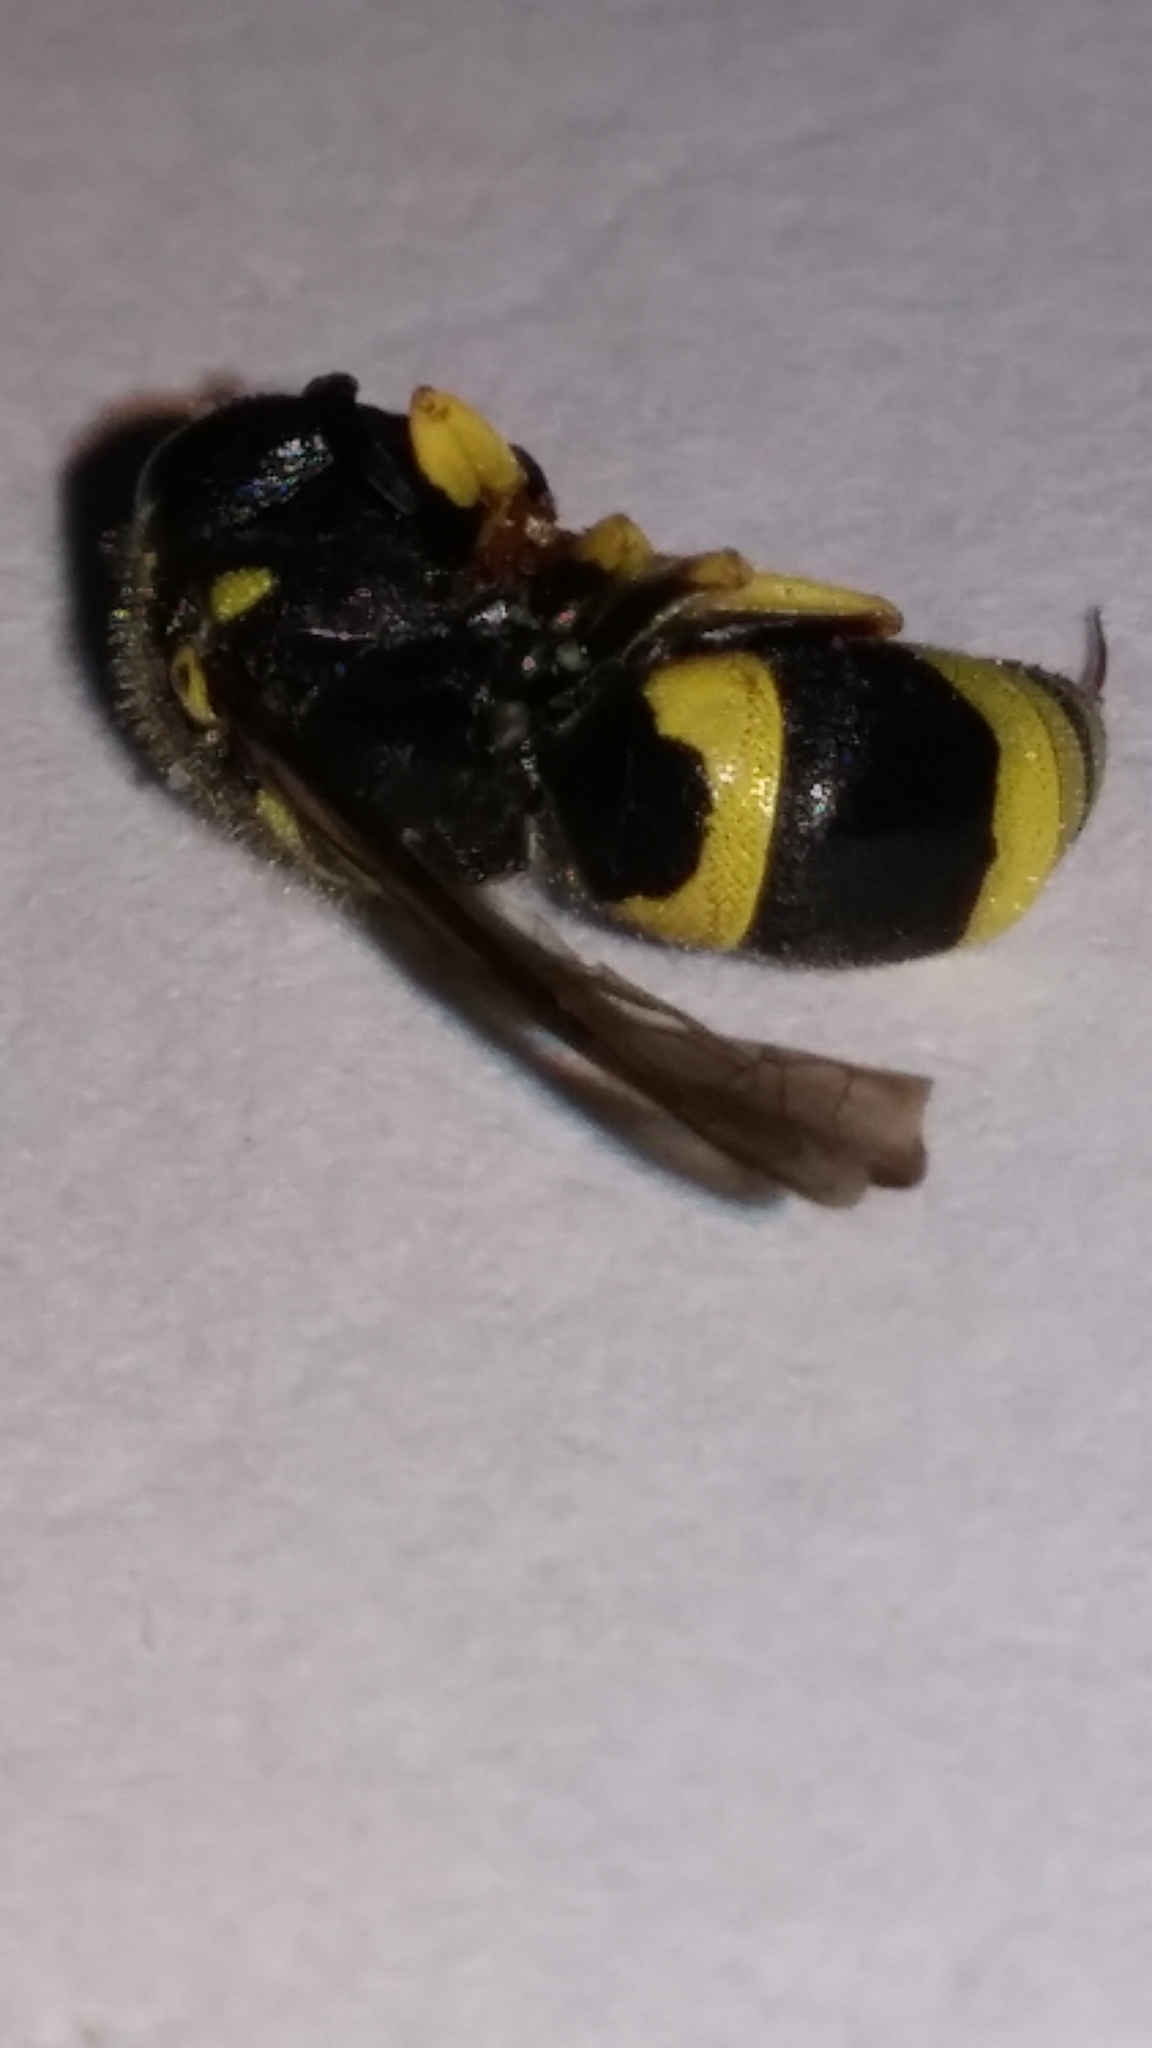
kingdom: Animalia
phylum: Arthropoda
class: Insecta
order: Hymenoptera
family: Vespidae
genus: Ancistrocerus
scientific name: Ancistrocerus gazella
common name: European tube wasp
